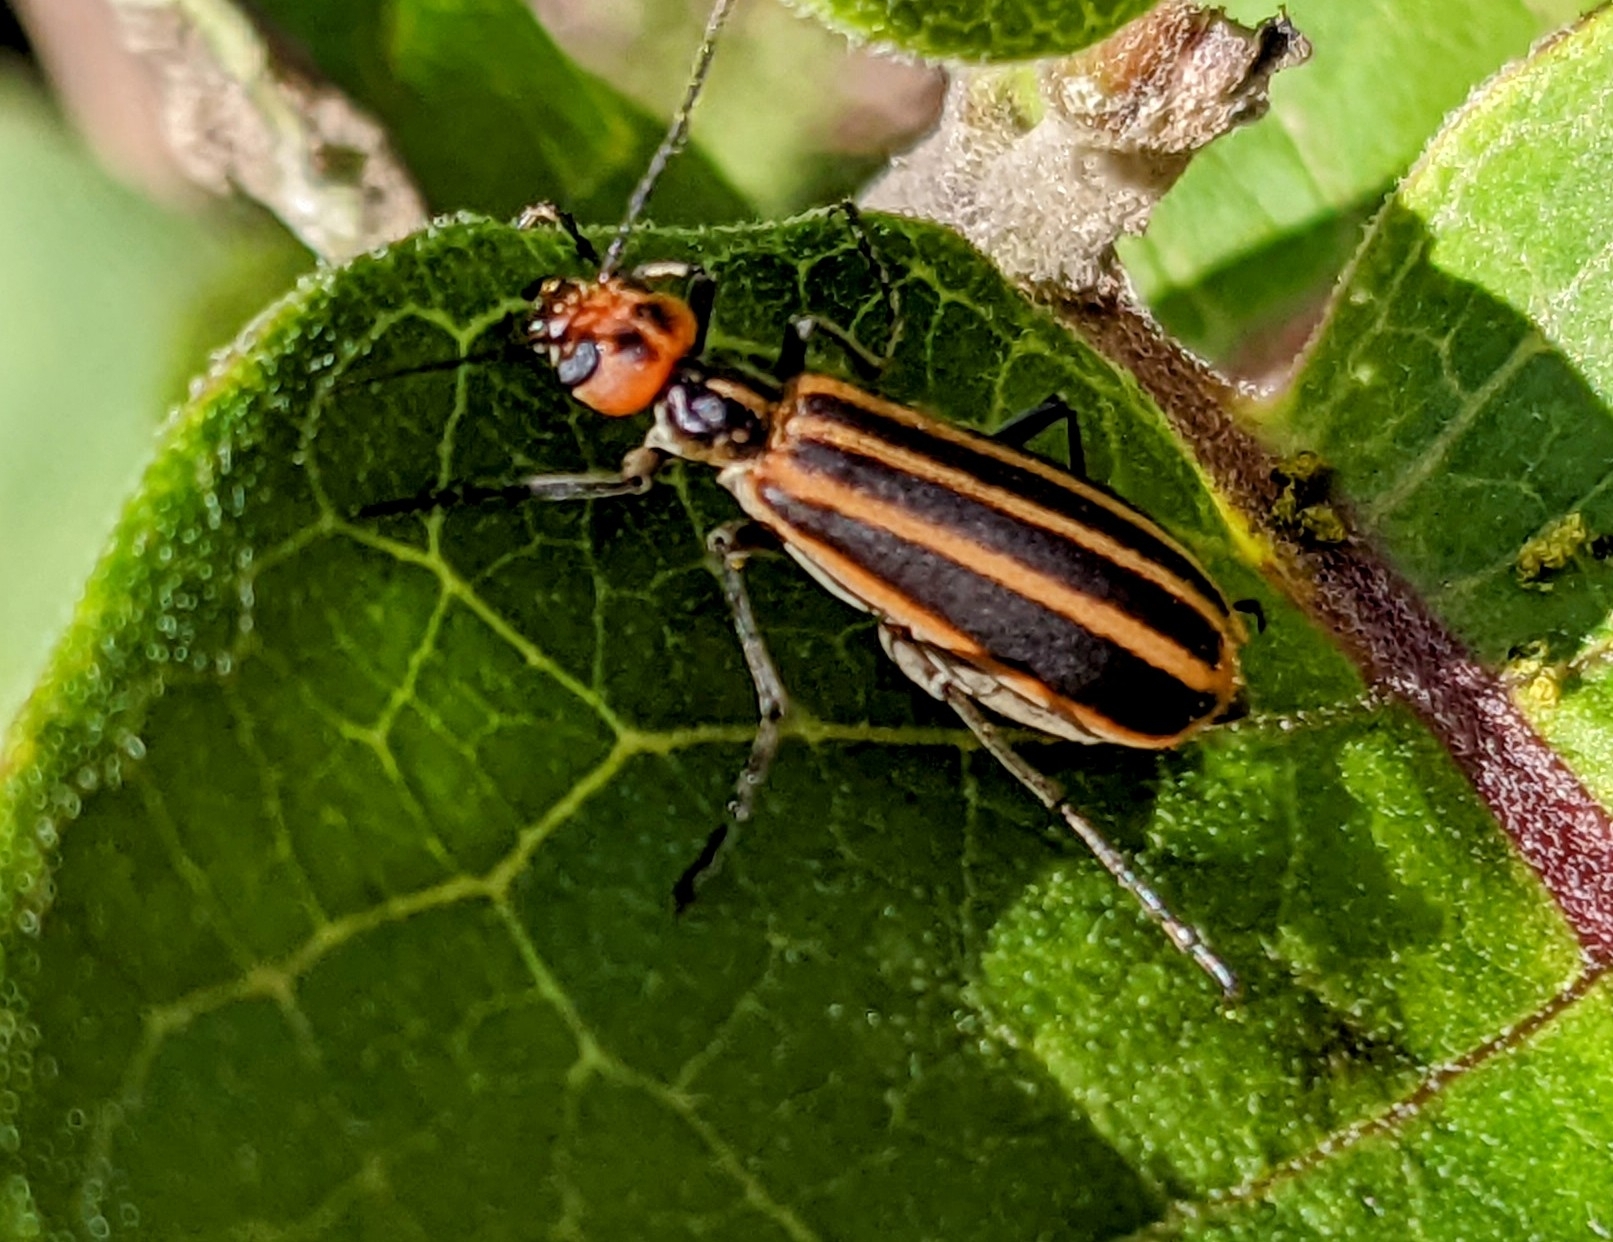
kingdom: Animalia
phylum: Arthropoda
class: Insecta
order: Coleoptera
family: Meloidae
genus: Epicauta
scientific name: Epicauta vittata
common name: Old-fashioned potato beetle
